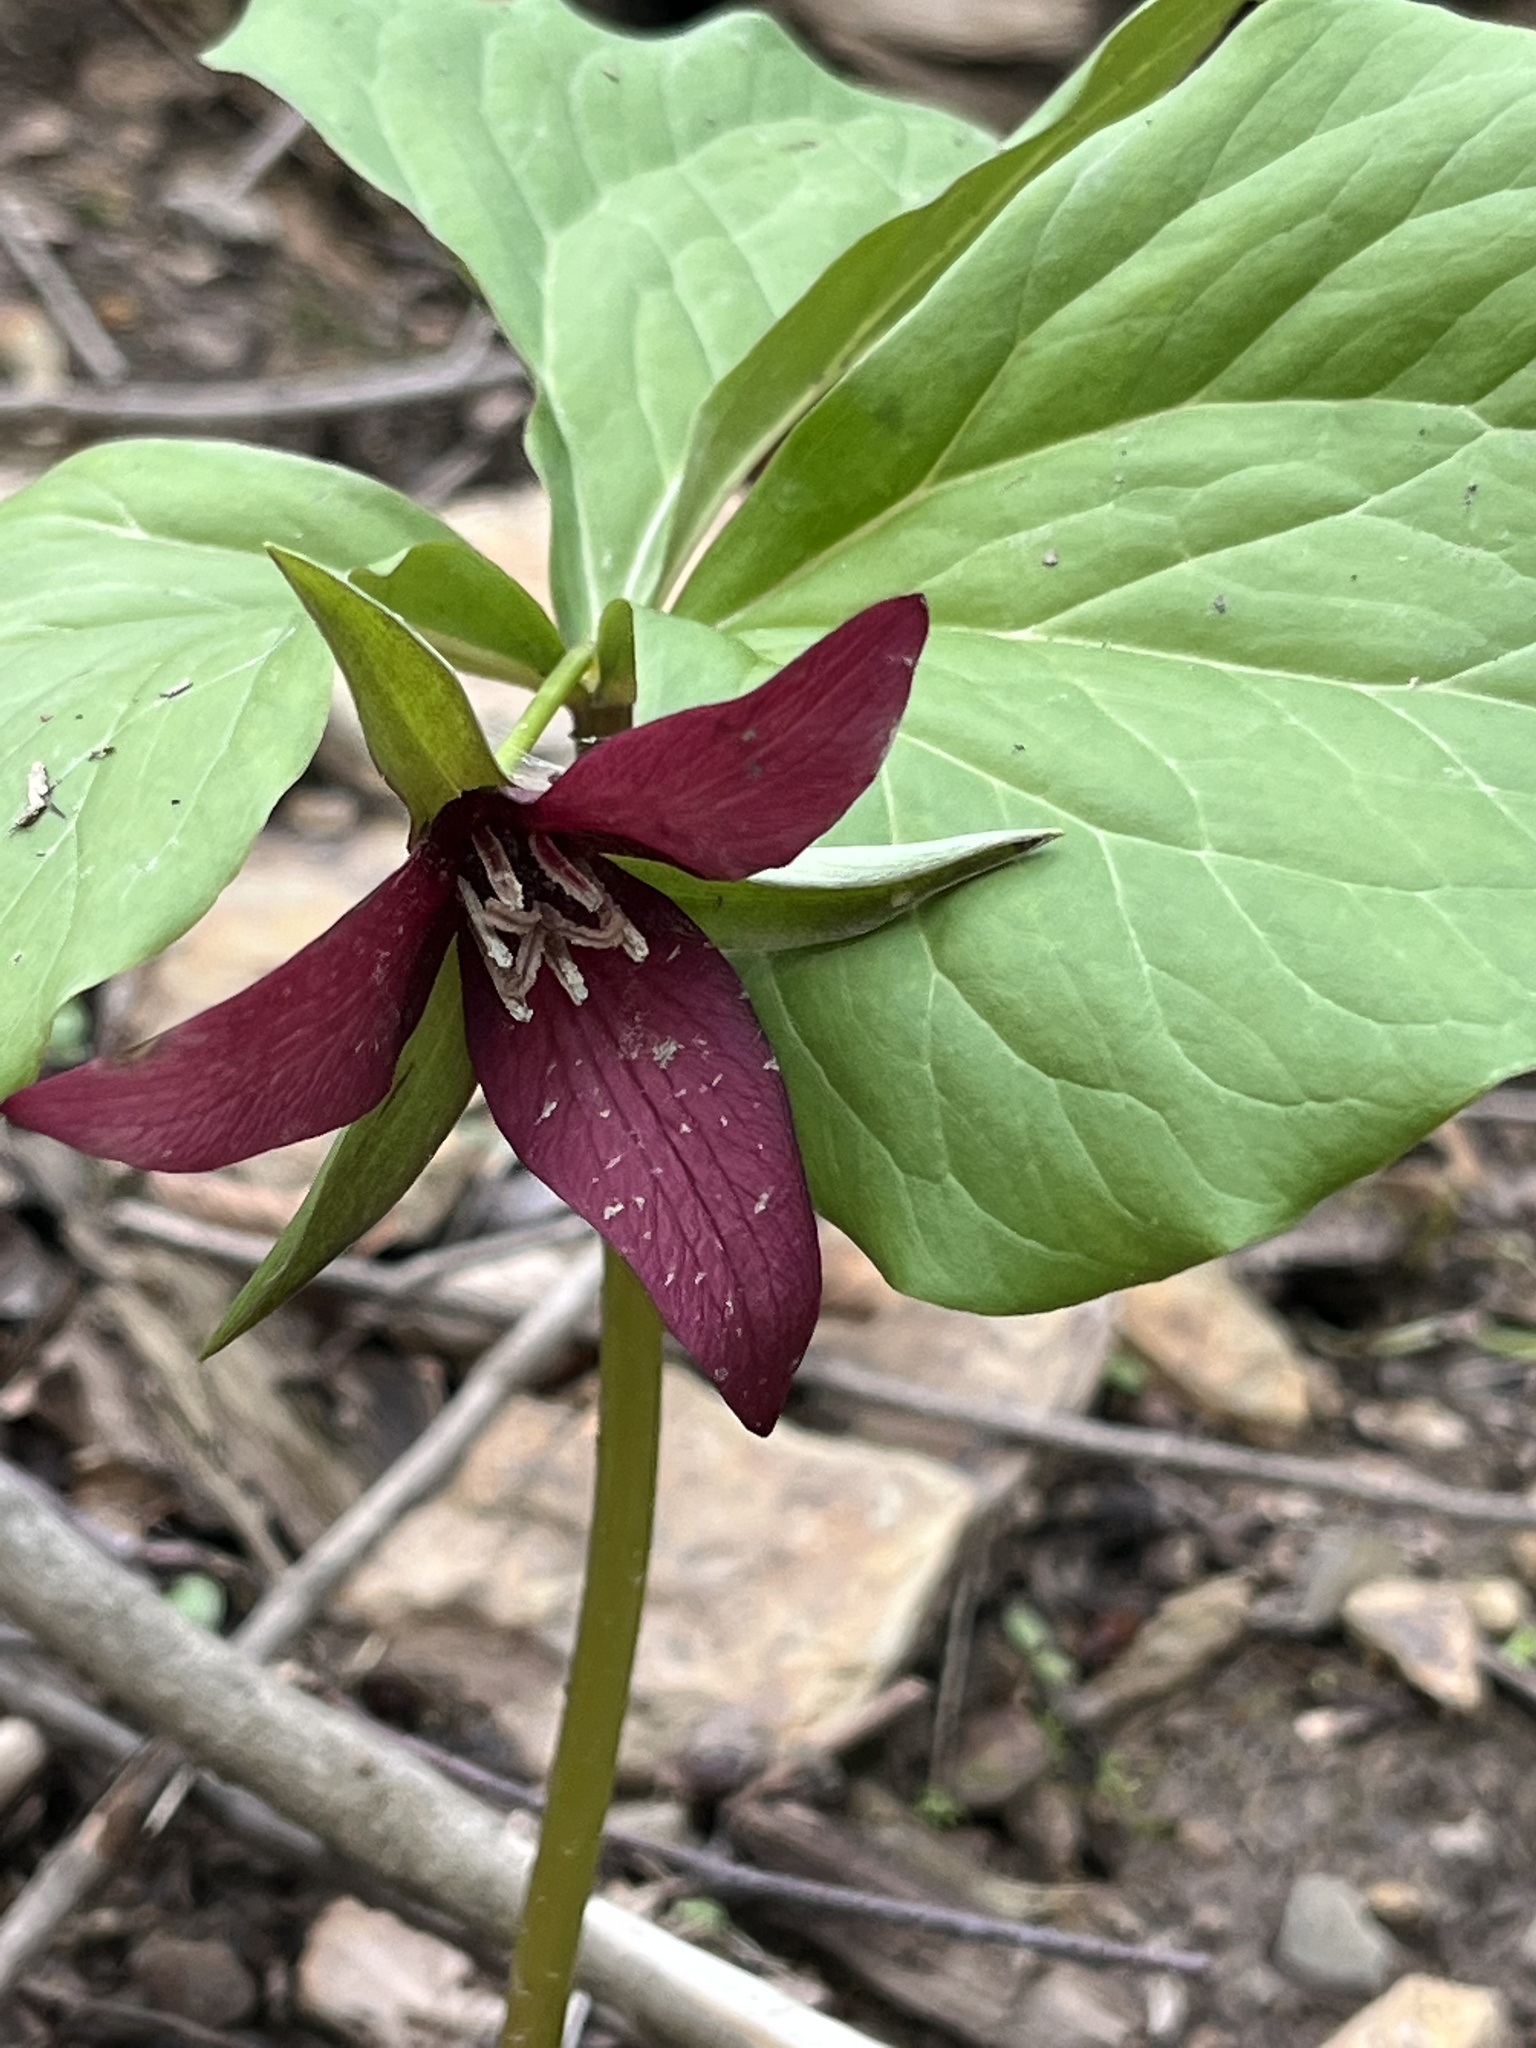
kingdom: Plantae
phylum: Tracheophyta
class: Liliopsida
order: Liliales
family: Melanthiaceae
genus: Trillium
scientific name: Trillium erectum
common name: Purple trillium
